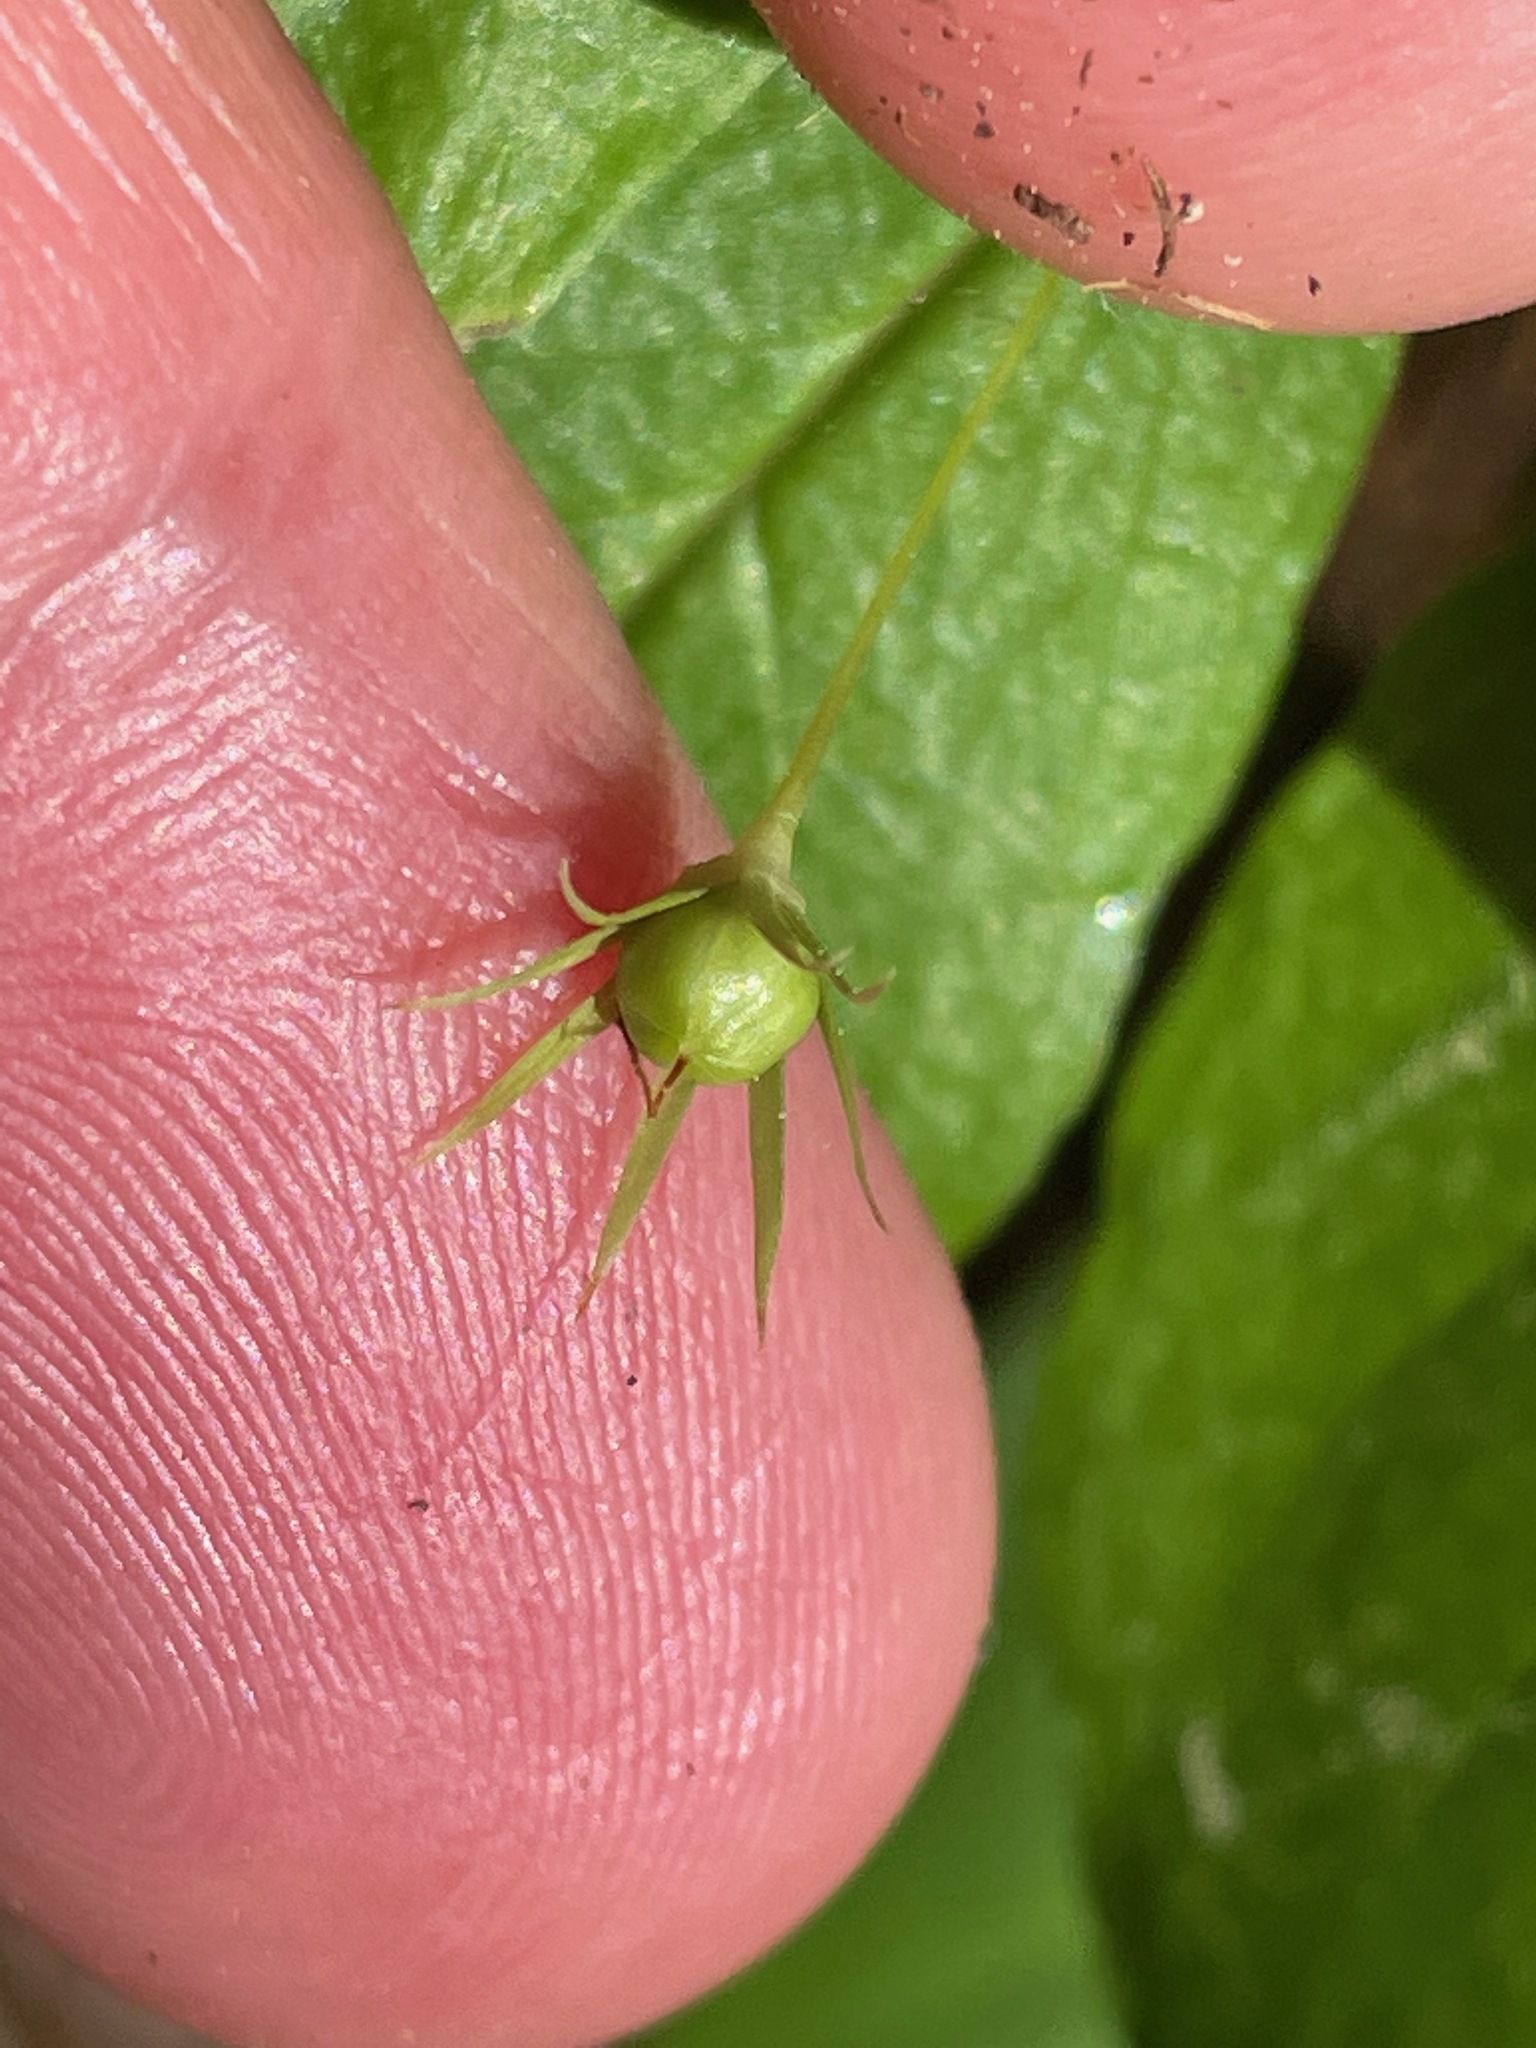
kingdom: Plantae
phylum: Tracheophyta
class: Magnoliopsida
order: Ericales
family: Primulaceae
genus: Lysimachia
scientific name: Lysimachia borealis
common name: American starflower
